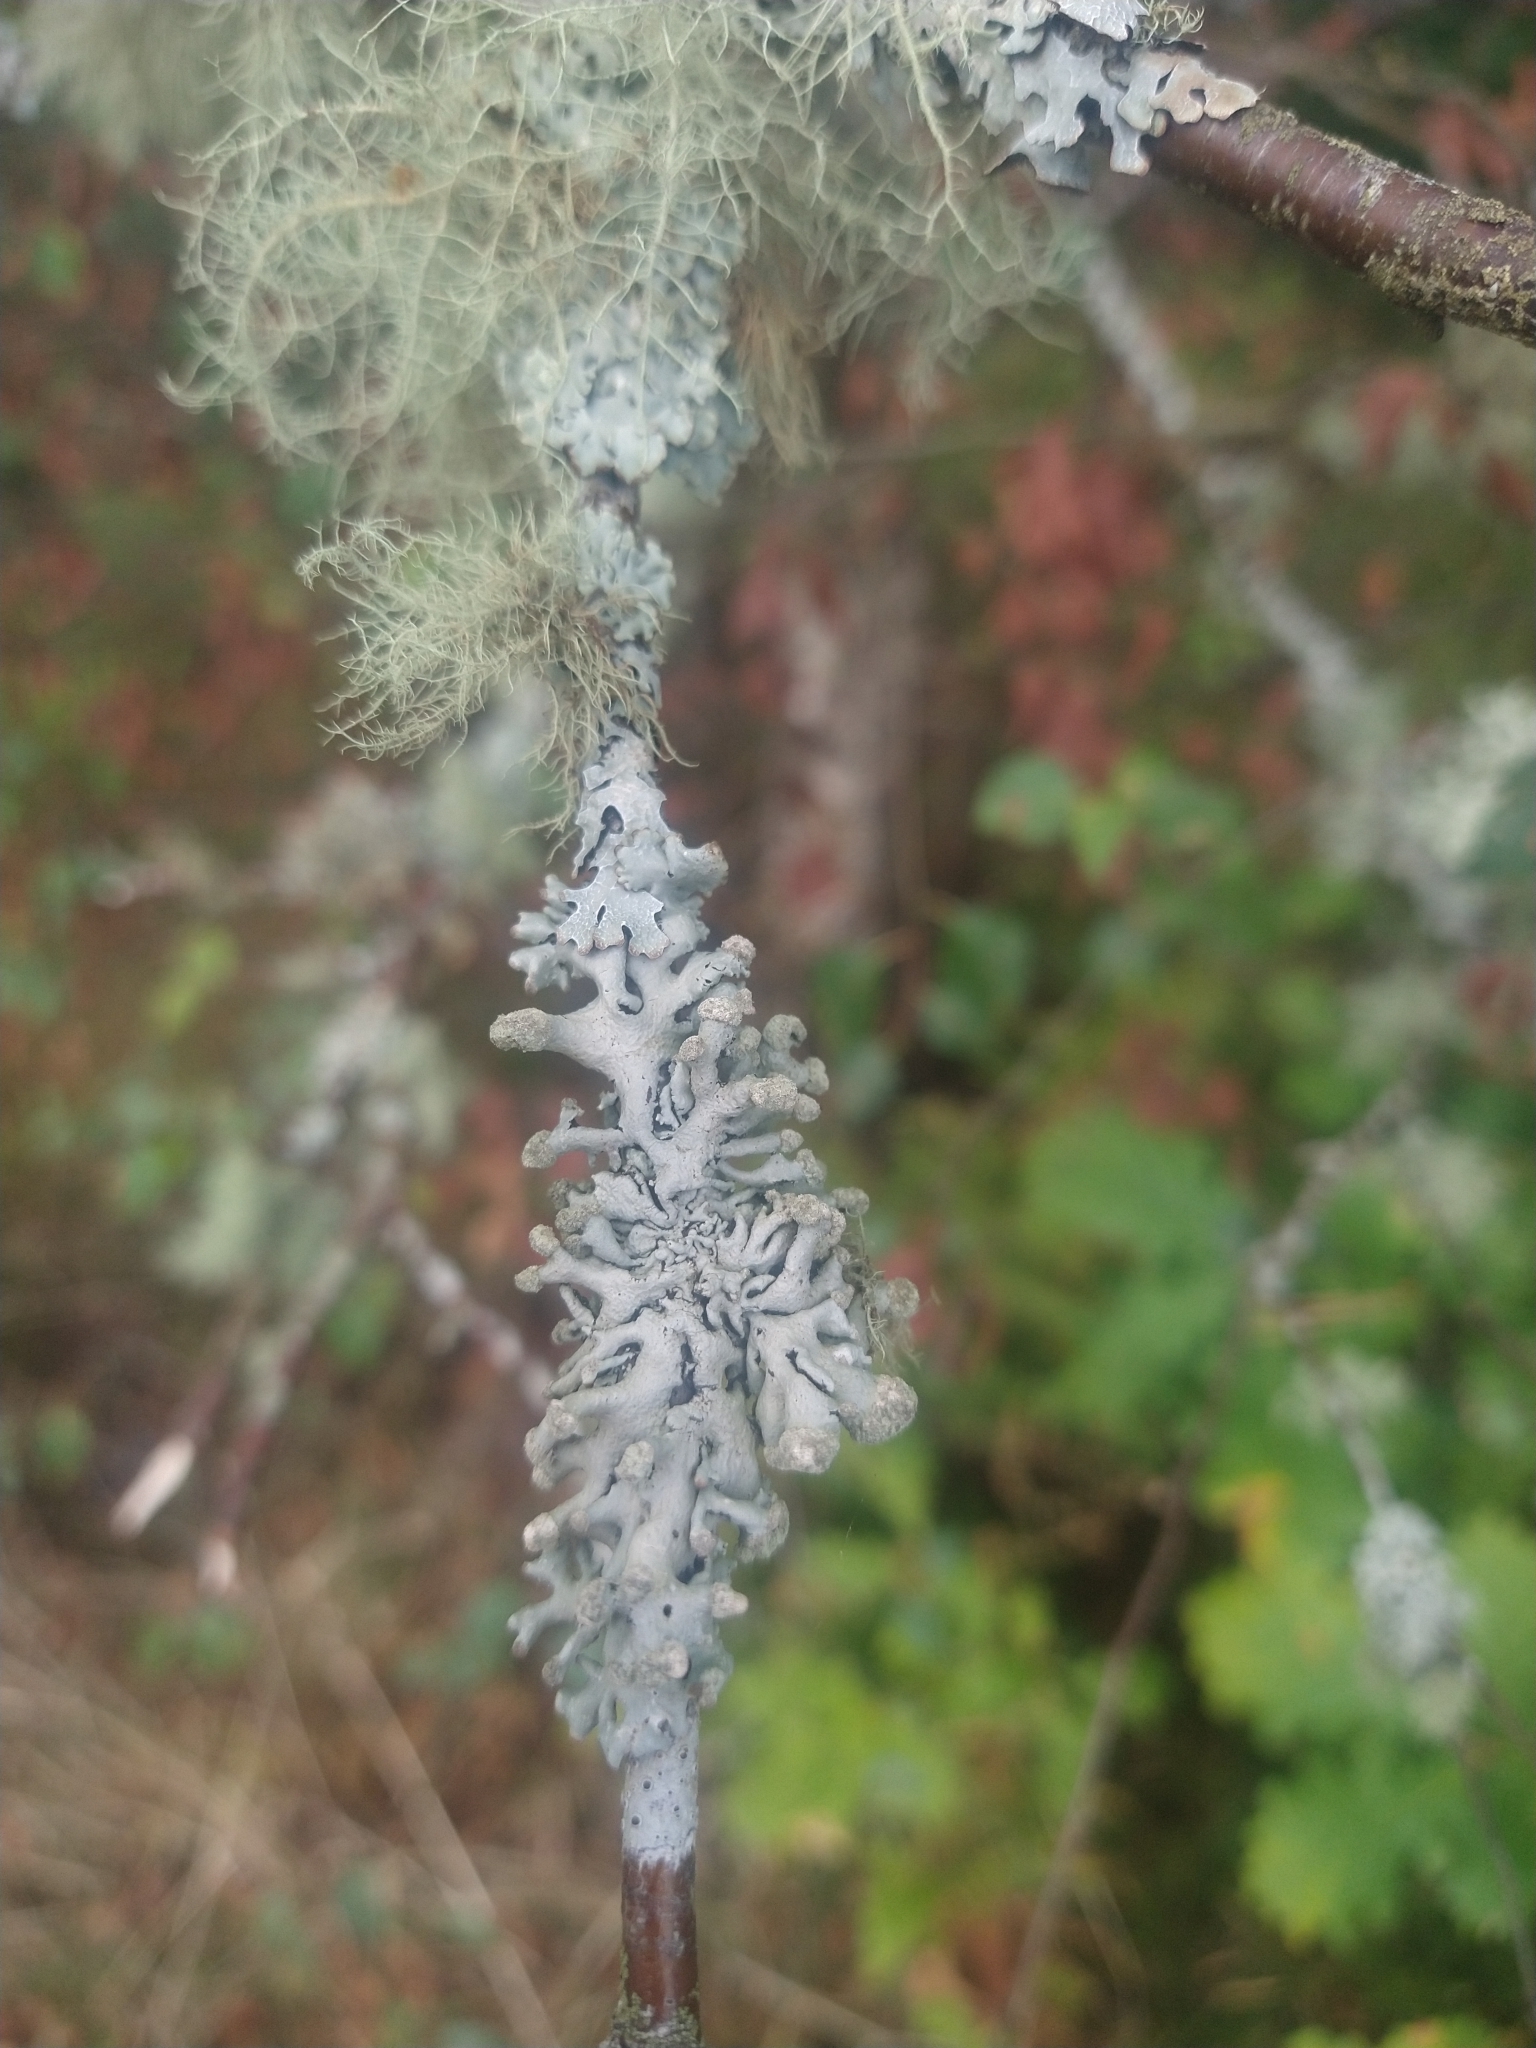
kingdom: Fungi
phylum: Ascomycota
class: Lecanoromycetes
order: Lecanorales
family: Parmeliaceae
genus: Hypogymnia
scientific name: Hypogymnia tubulosa
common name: Powder-headed tube lichen
